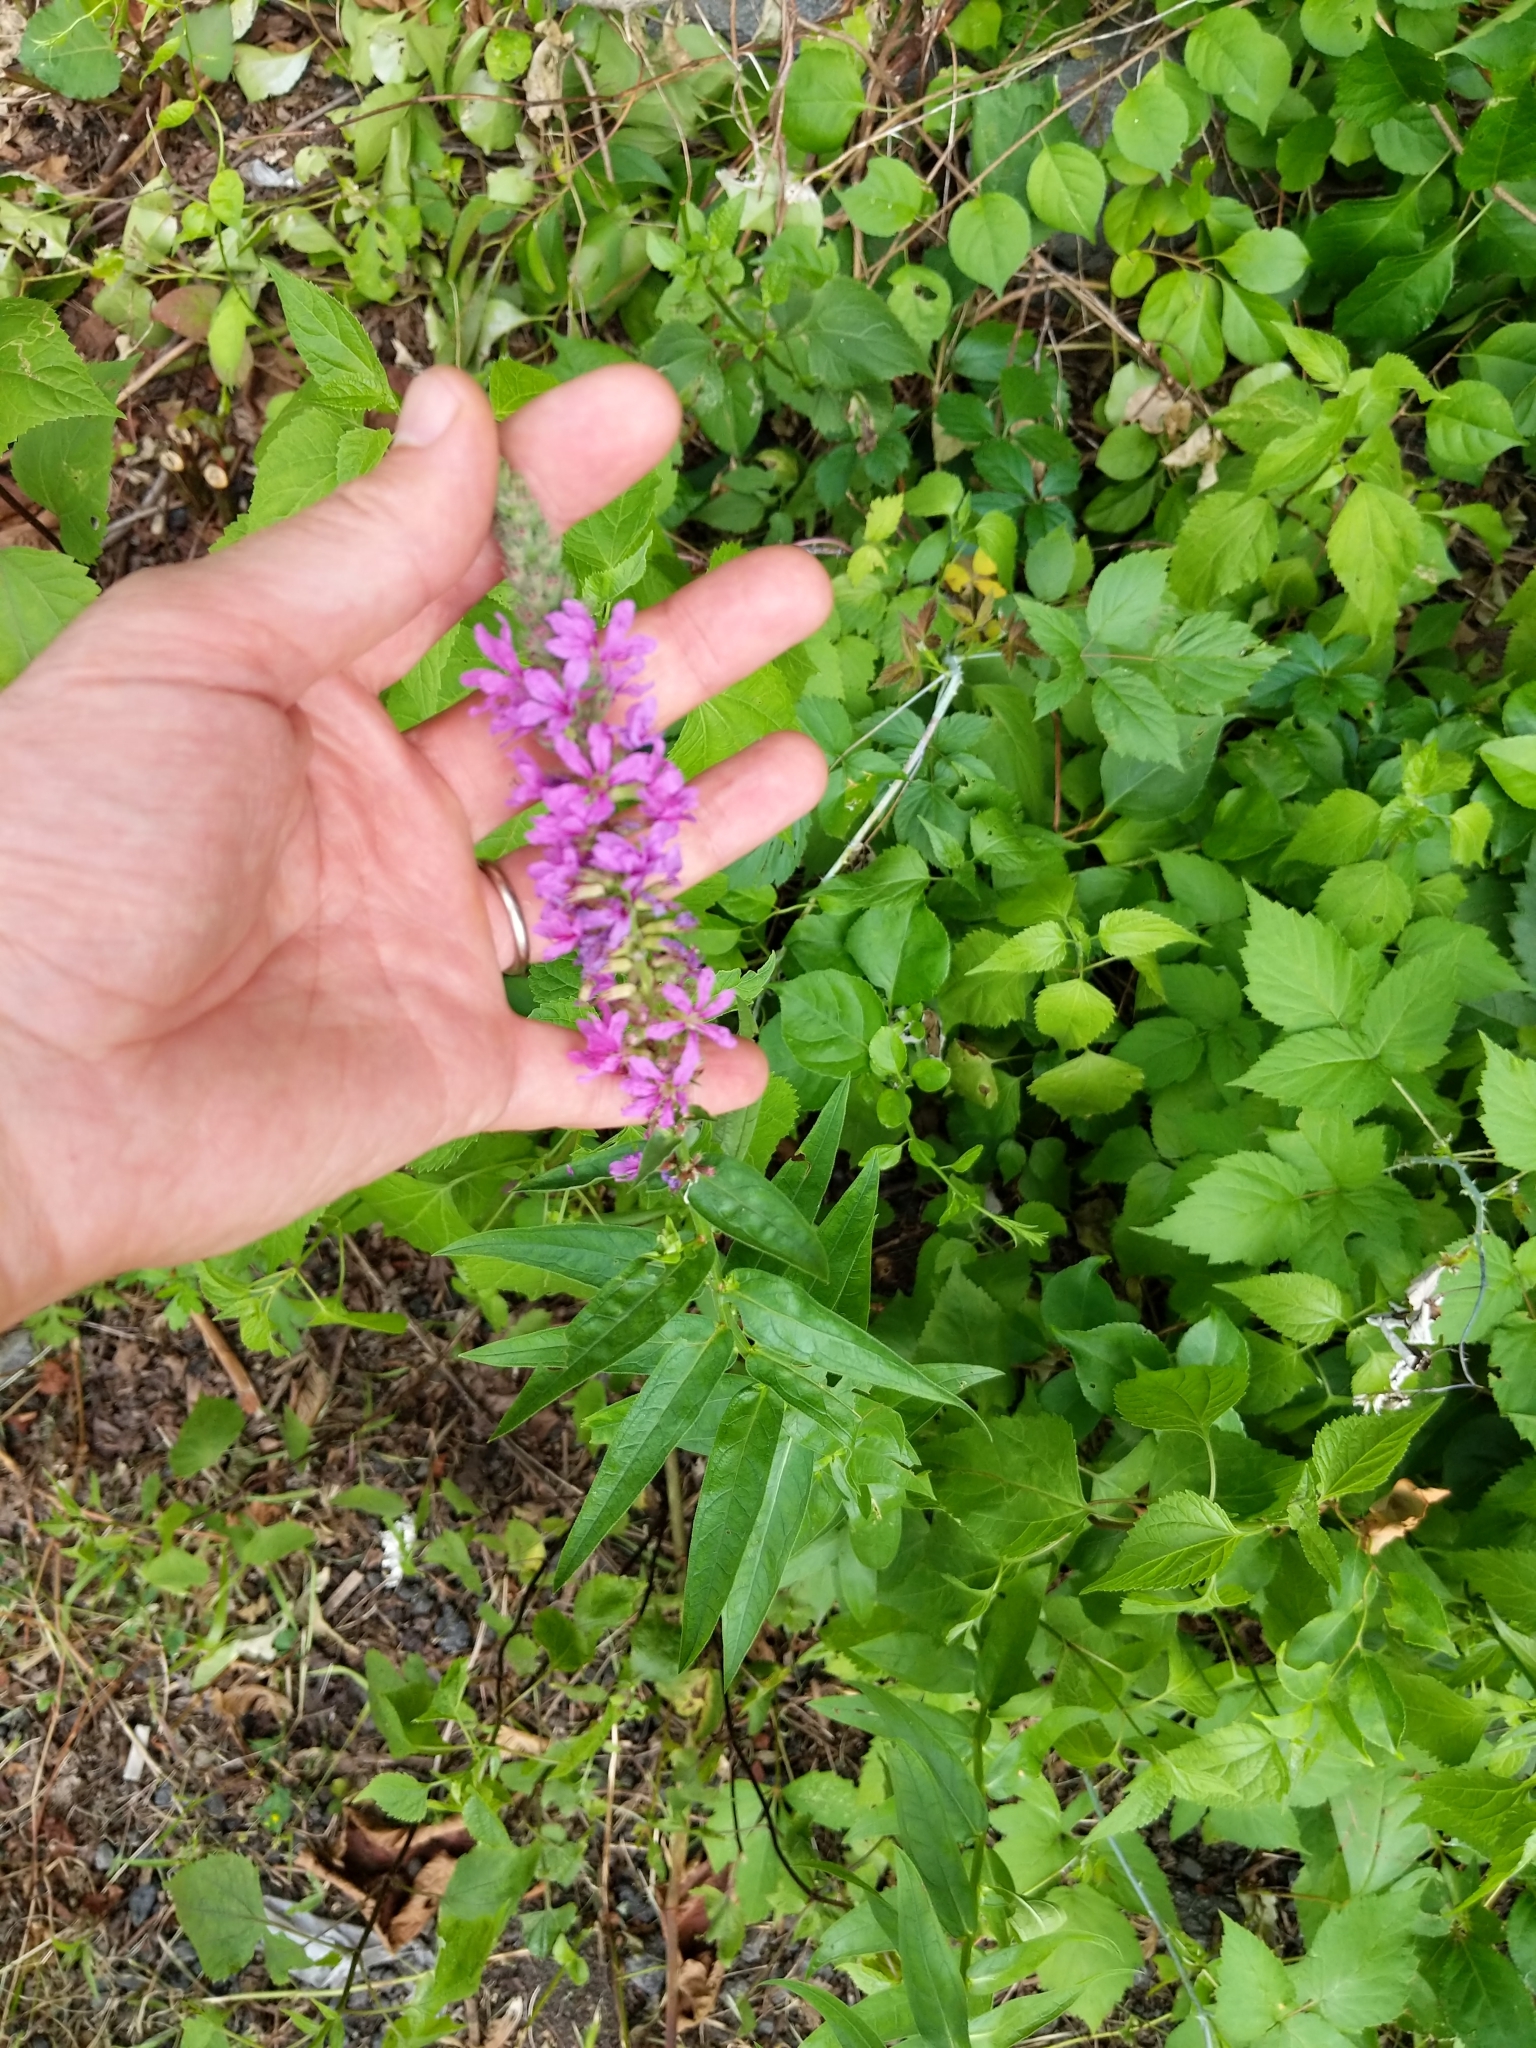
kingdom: Plantae
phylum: Tracheophyta
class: Magnoliopsida
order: Myrtales
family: Lythraceae
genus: Lythrum
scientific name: Lythrum salicaria
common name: Purple loosestrife
